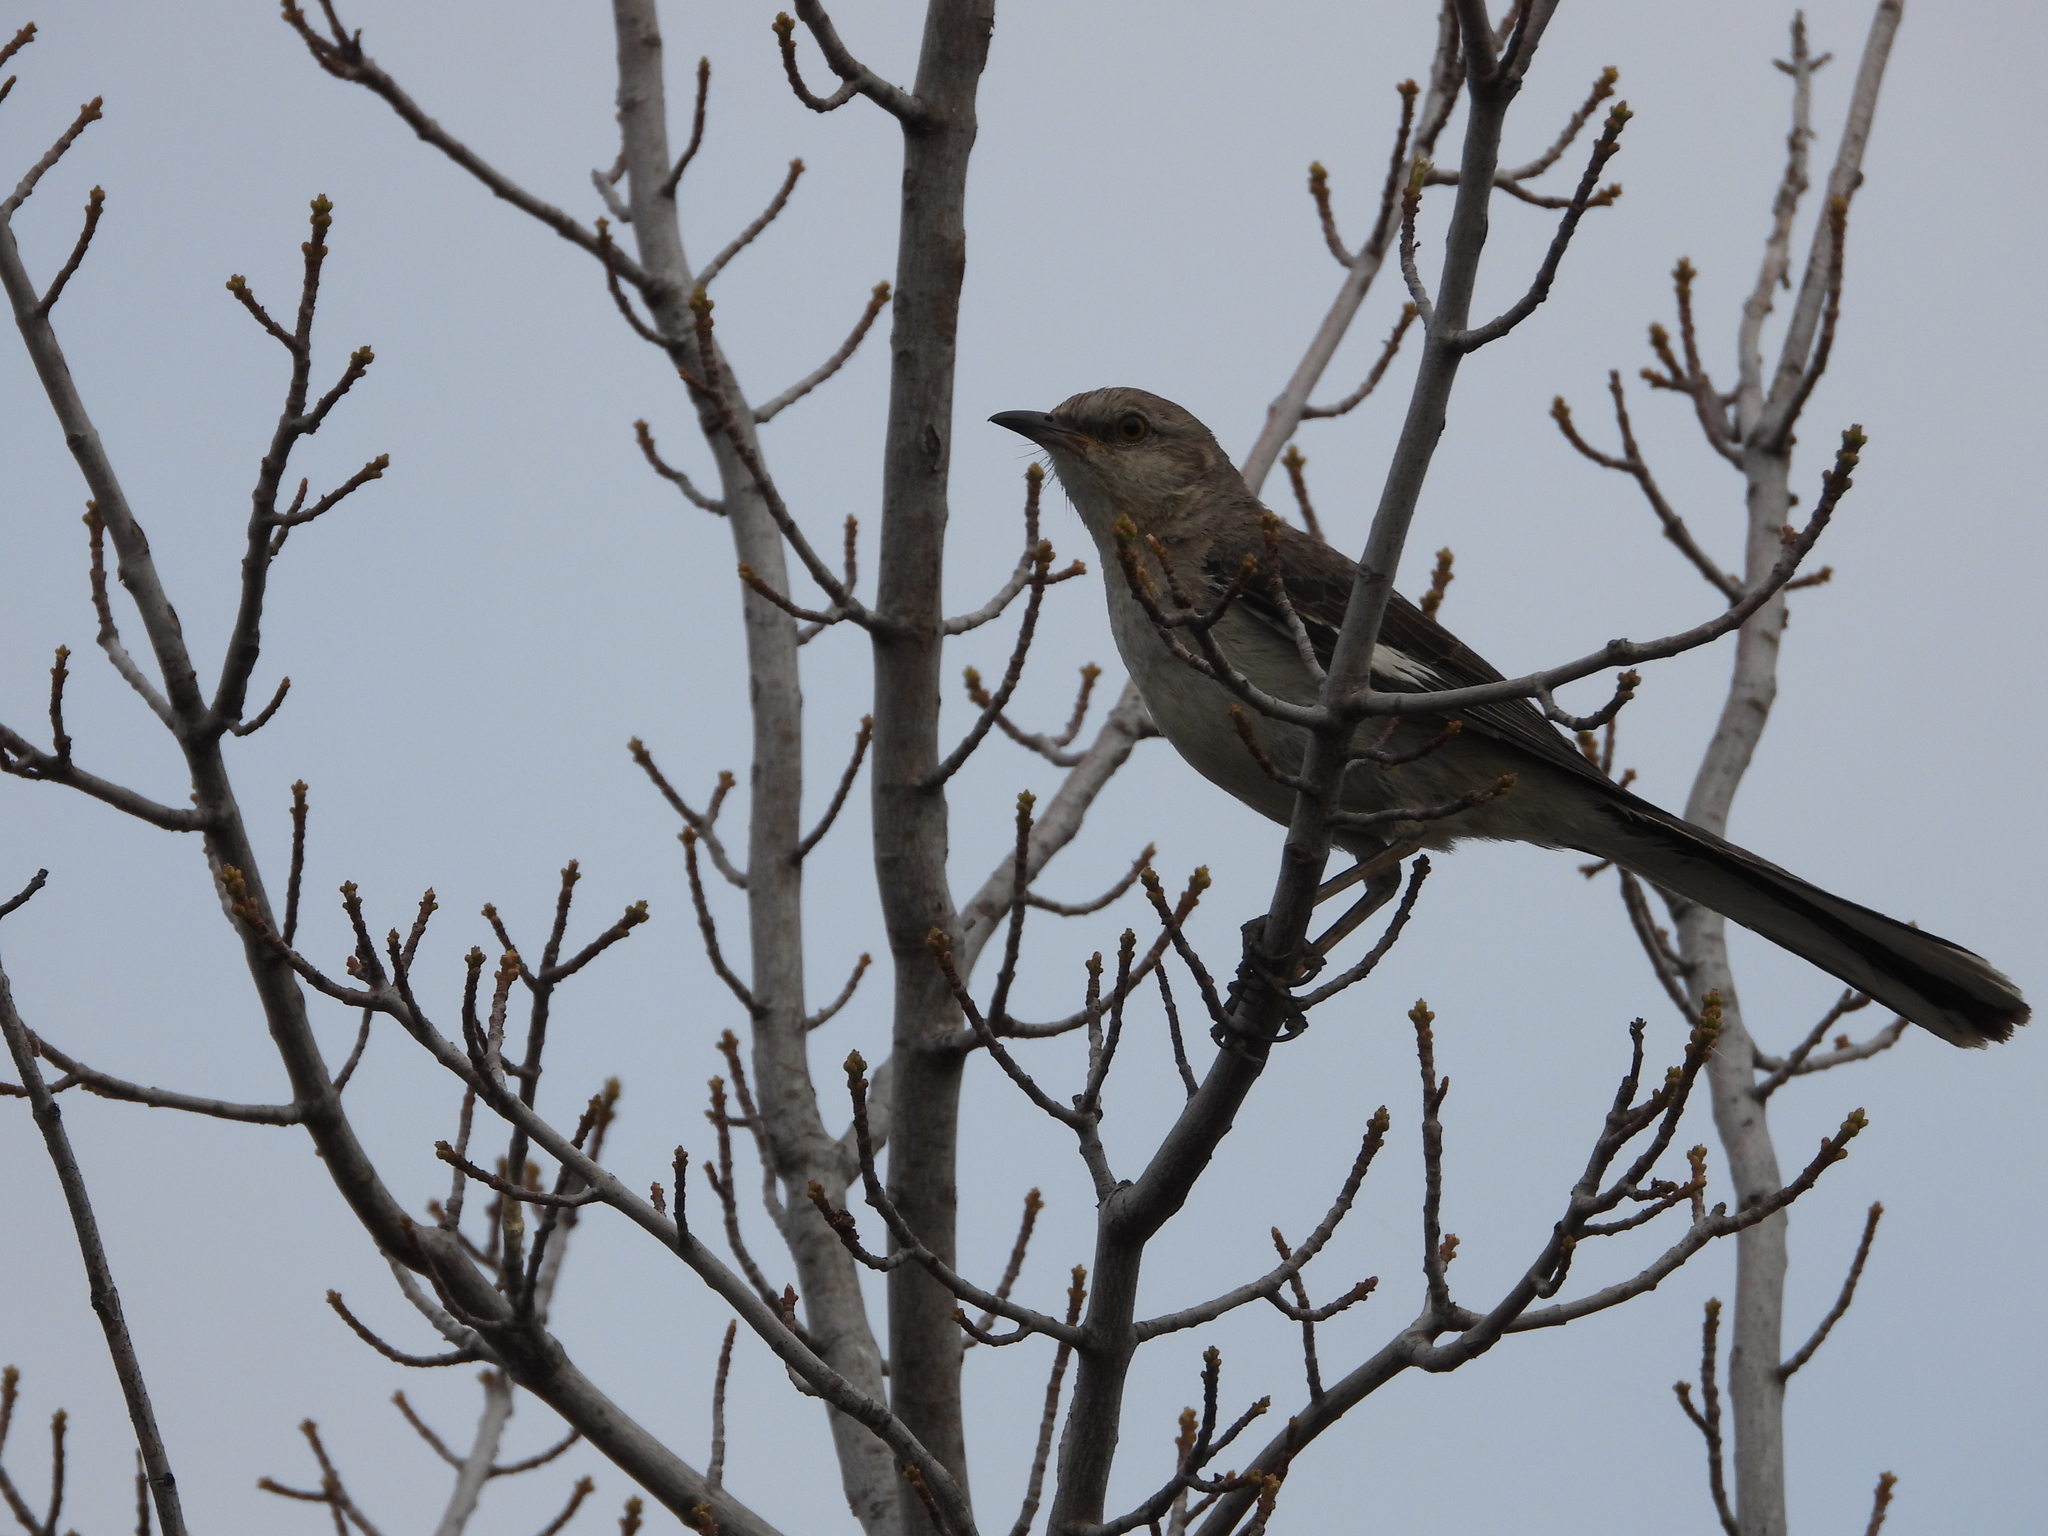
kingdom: Animalia
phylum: Chordata
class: Aves
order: Passeriformes
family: Mimidae
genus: Mimus
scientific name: Mimus polyglottos
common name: Northern mockingbird
